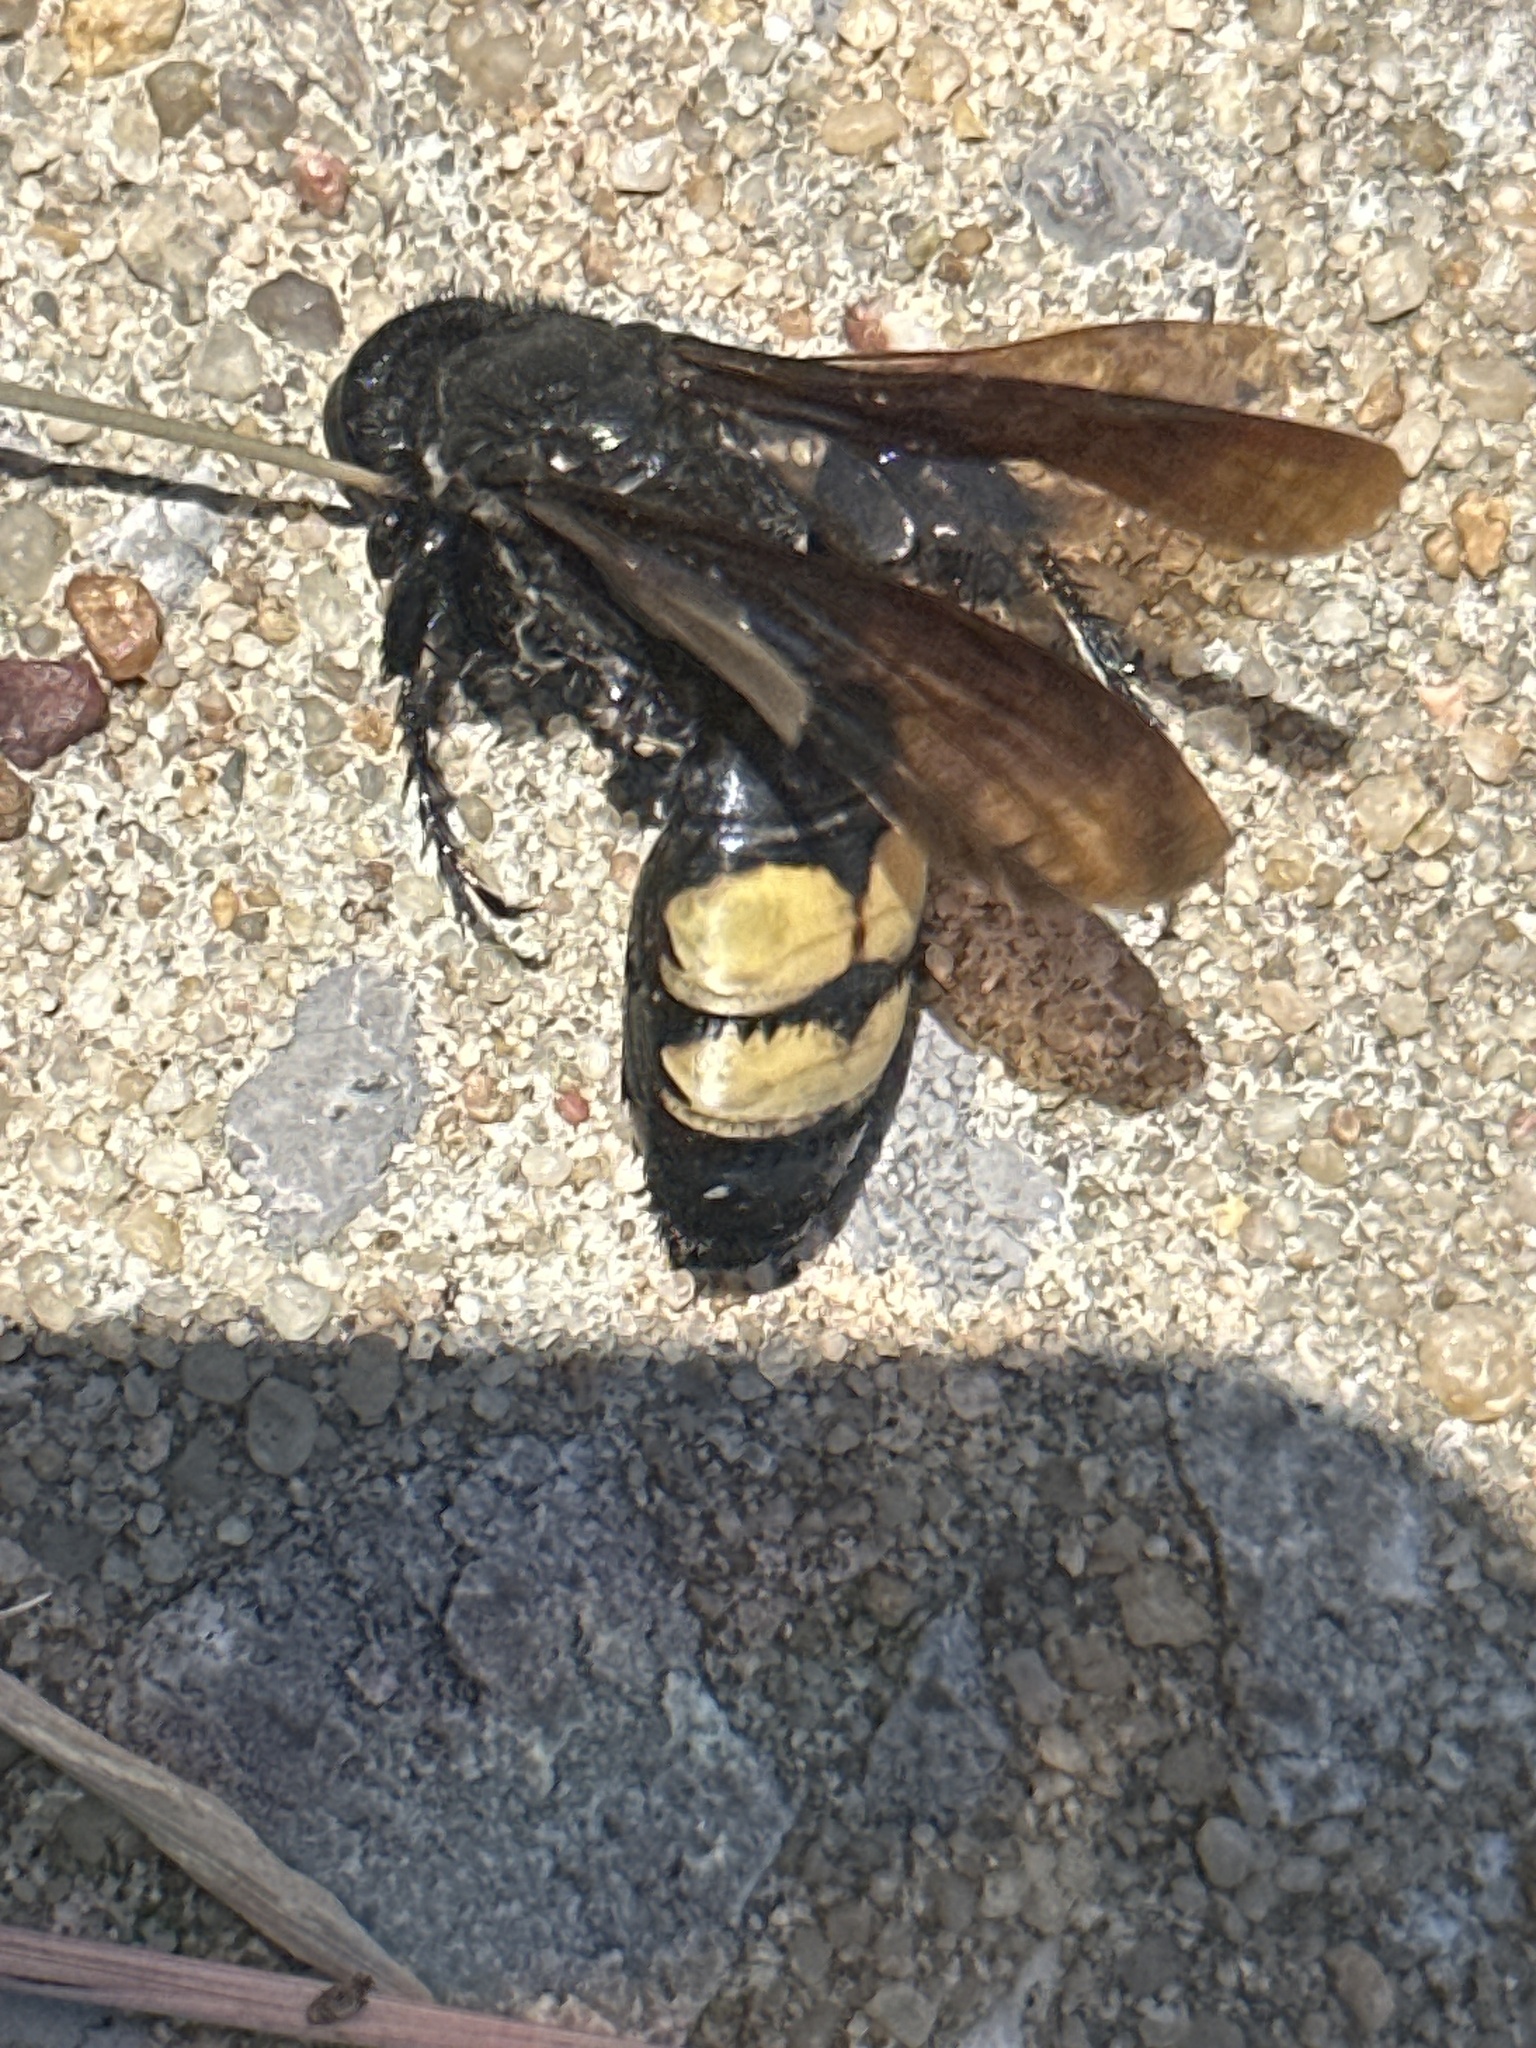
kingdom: Animalia
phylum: Arthropoda
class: Insecta
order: Hymenoptera
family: Scoliidae
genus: Pygodasis
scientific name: Pygodasis
